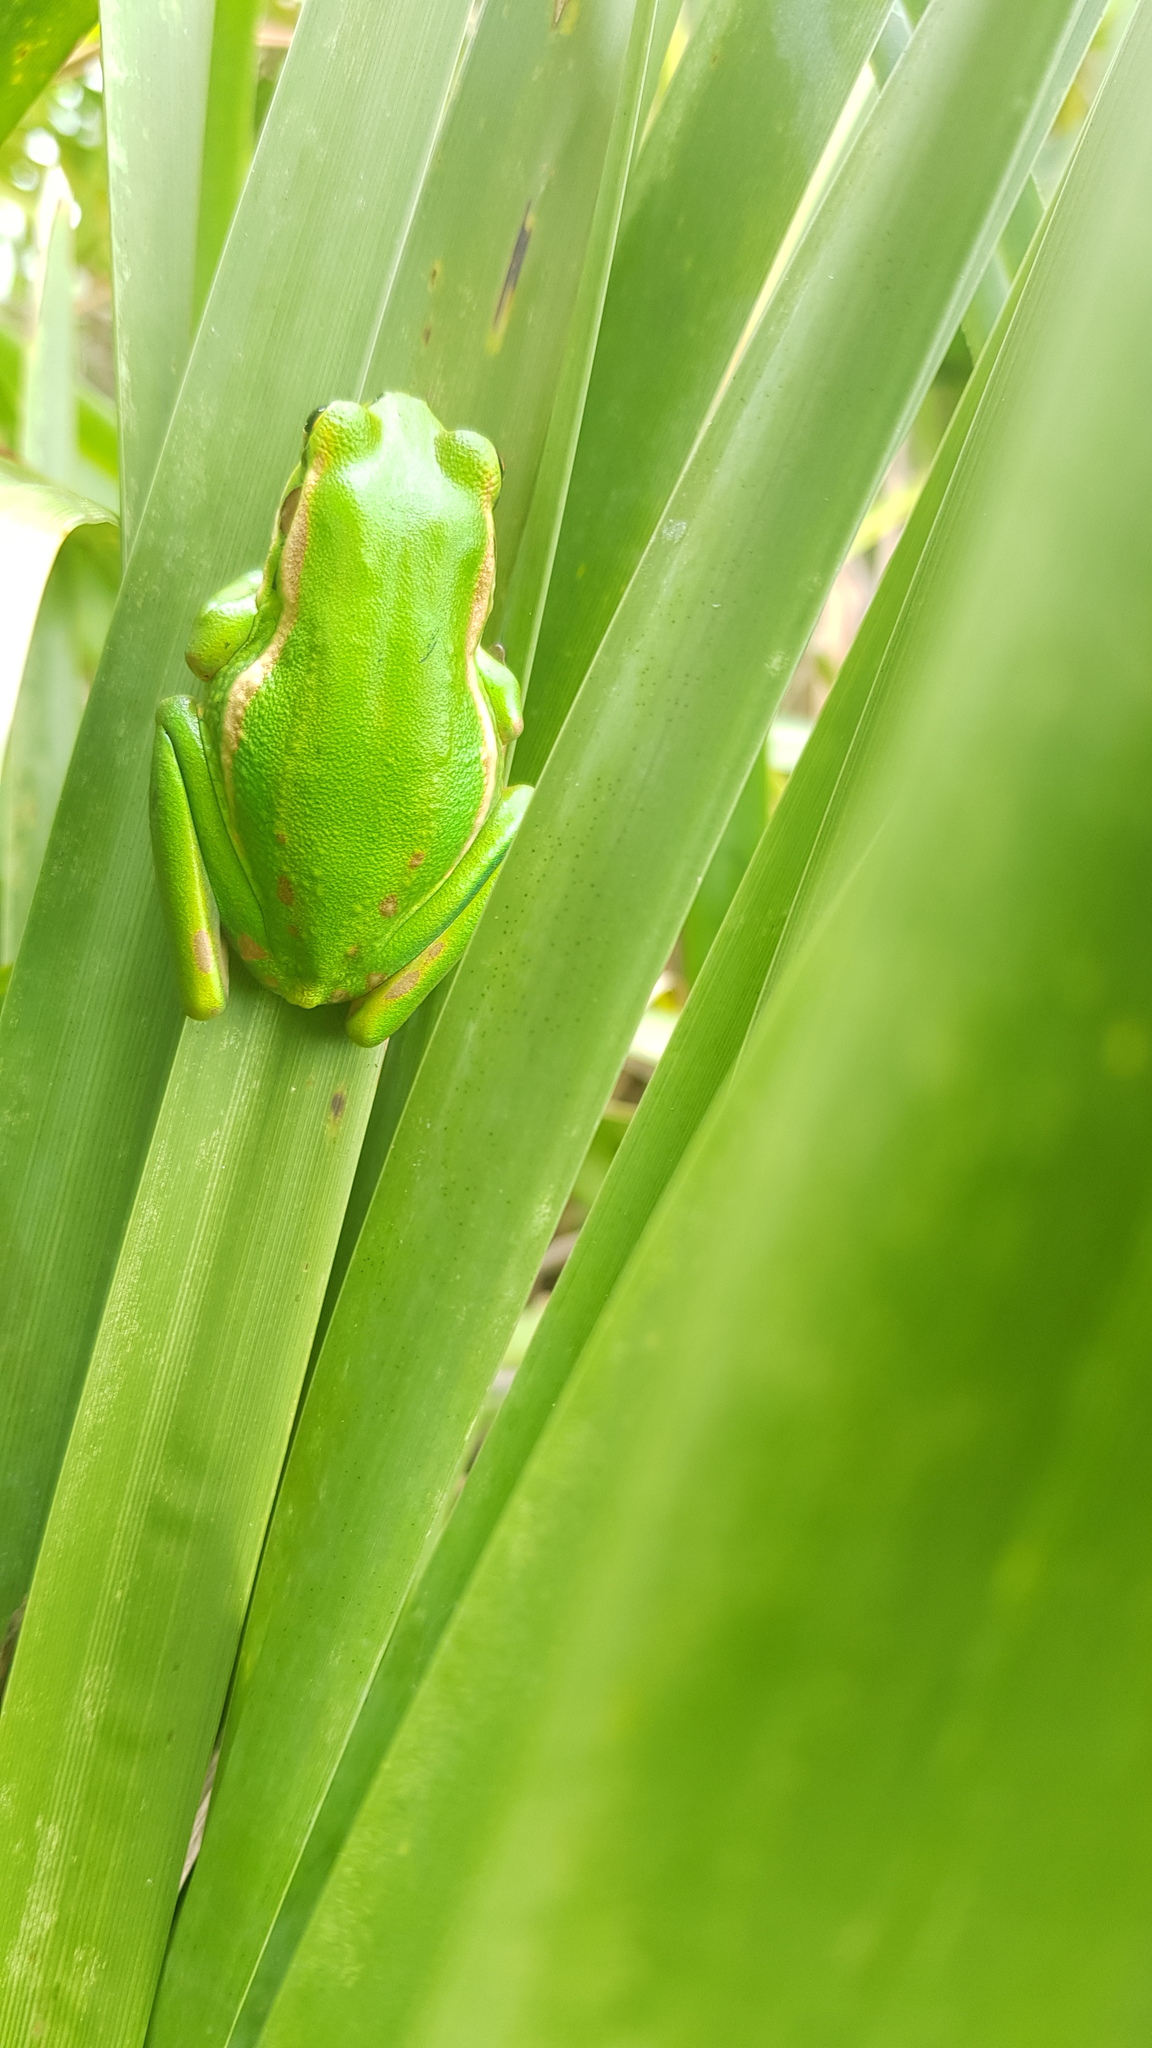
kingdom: Animalia
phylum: Chordata
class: Amphibia
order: Anura
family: Pelodryadidae
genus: Ranoidea
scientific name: Ranoidea aurea
